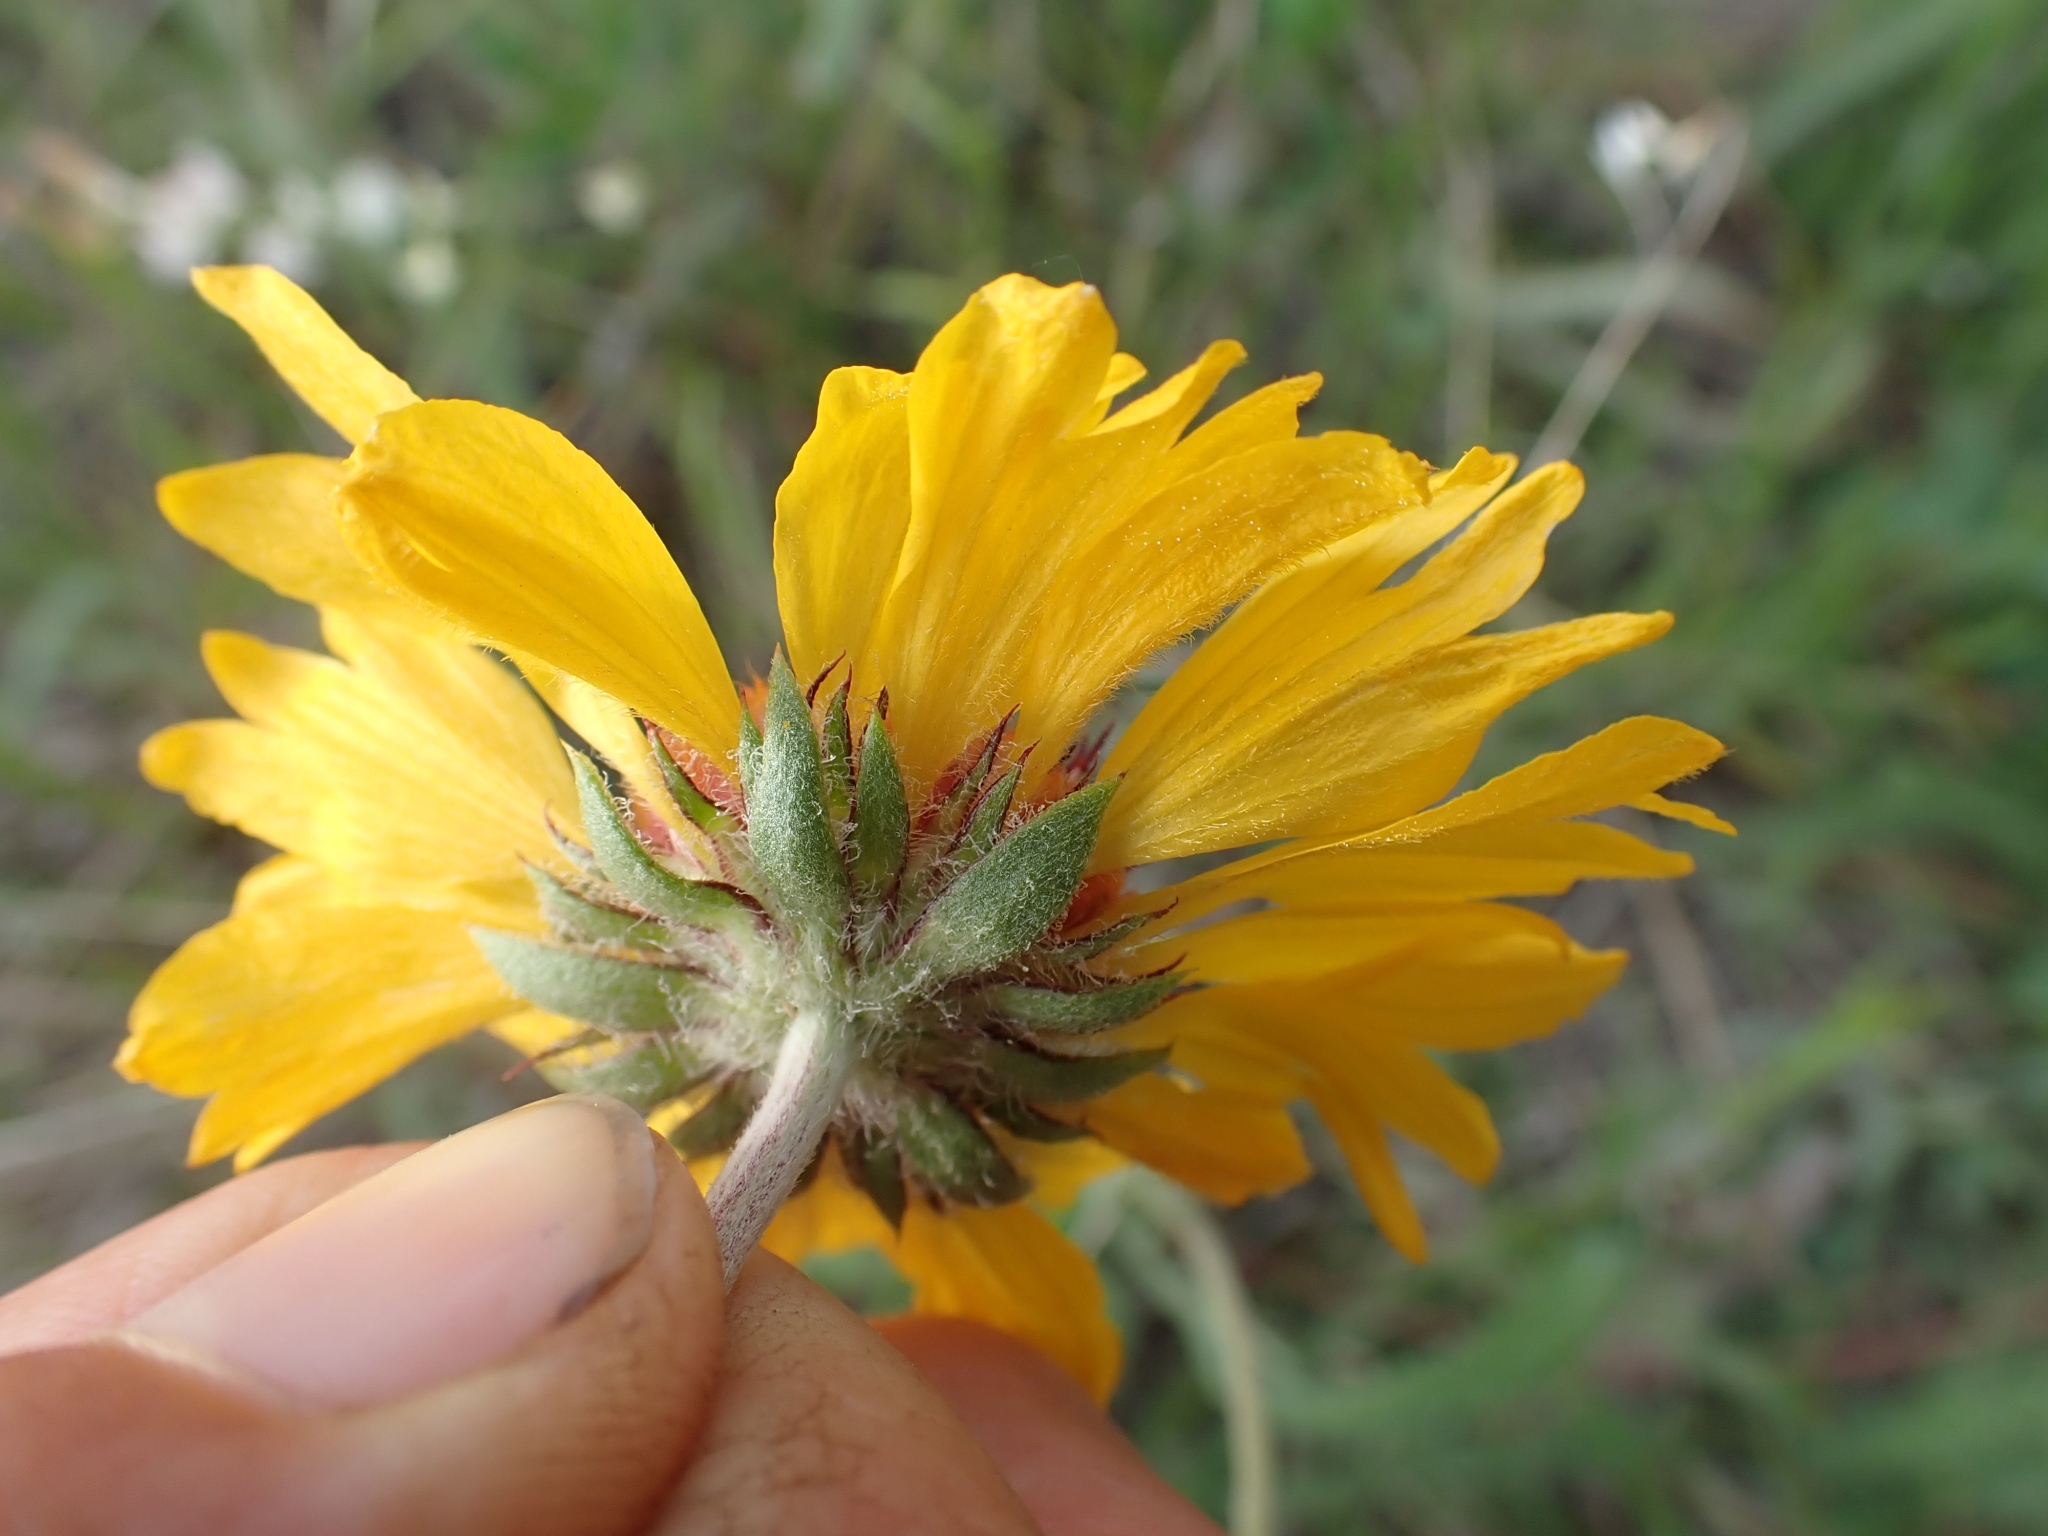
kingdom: Plantae
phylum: Tracheophyta
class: Magnoliopsida
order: Asterales
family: Asteraceae
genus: Gaillardia
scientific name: Gaillardia aristata
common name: Blanket-flower
